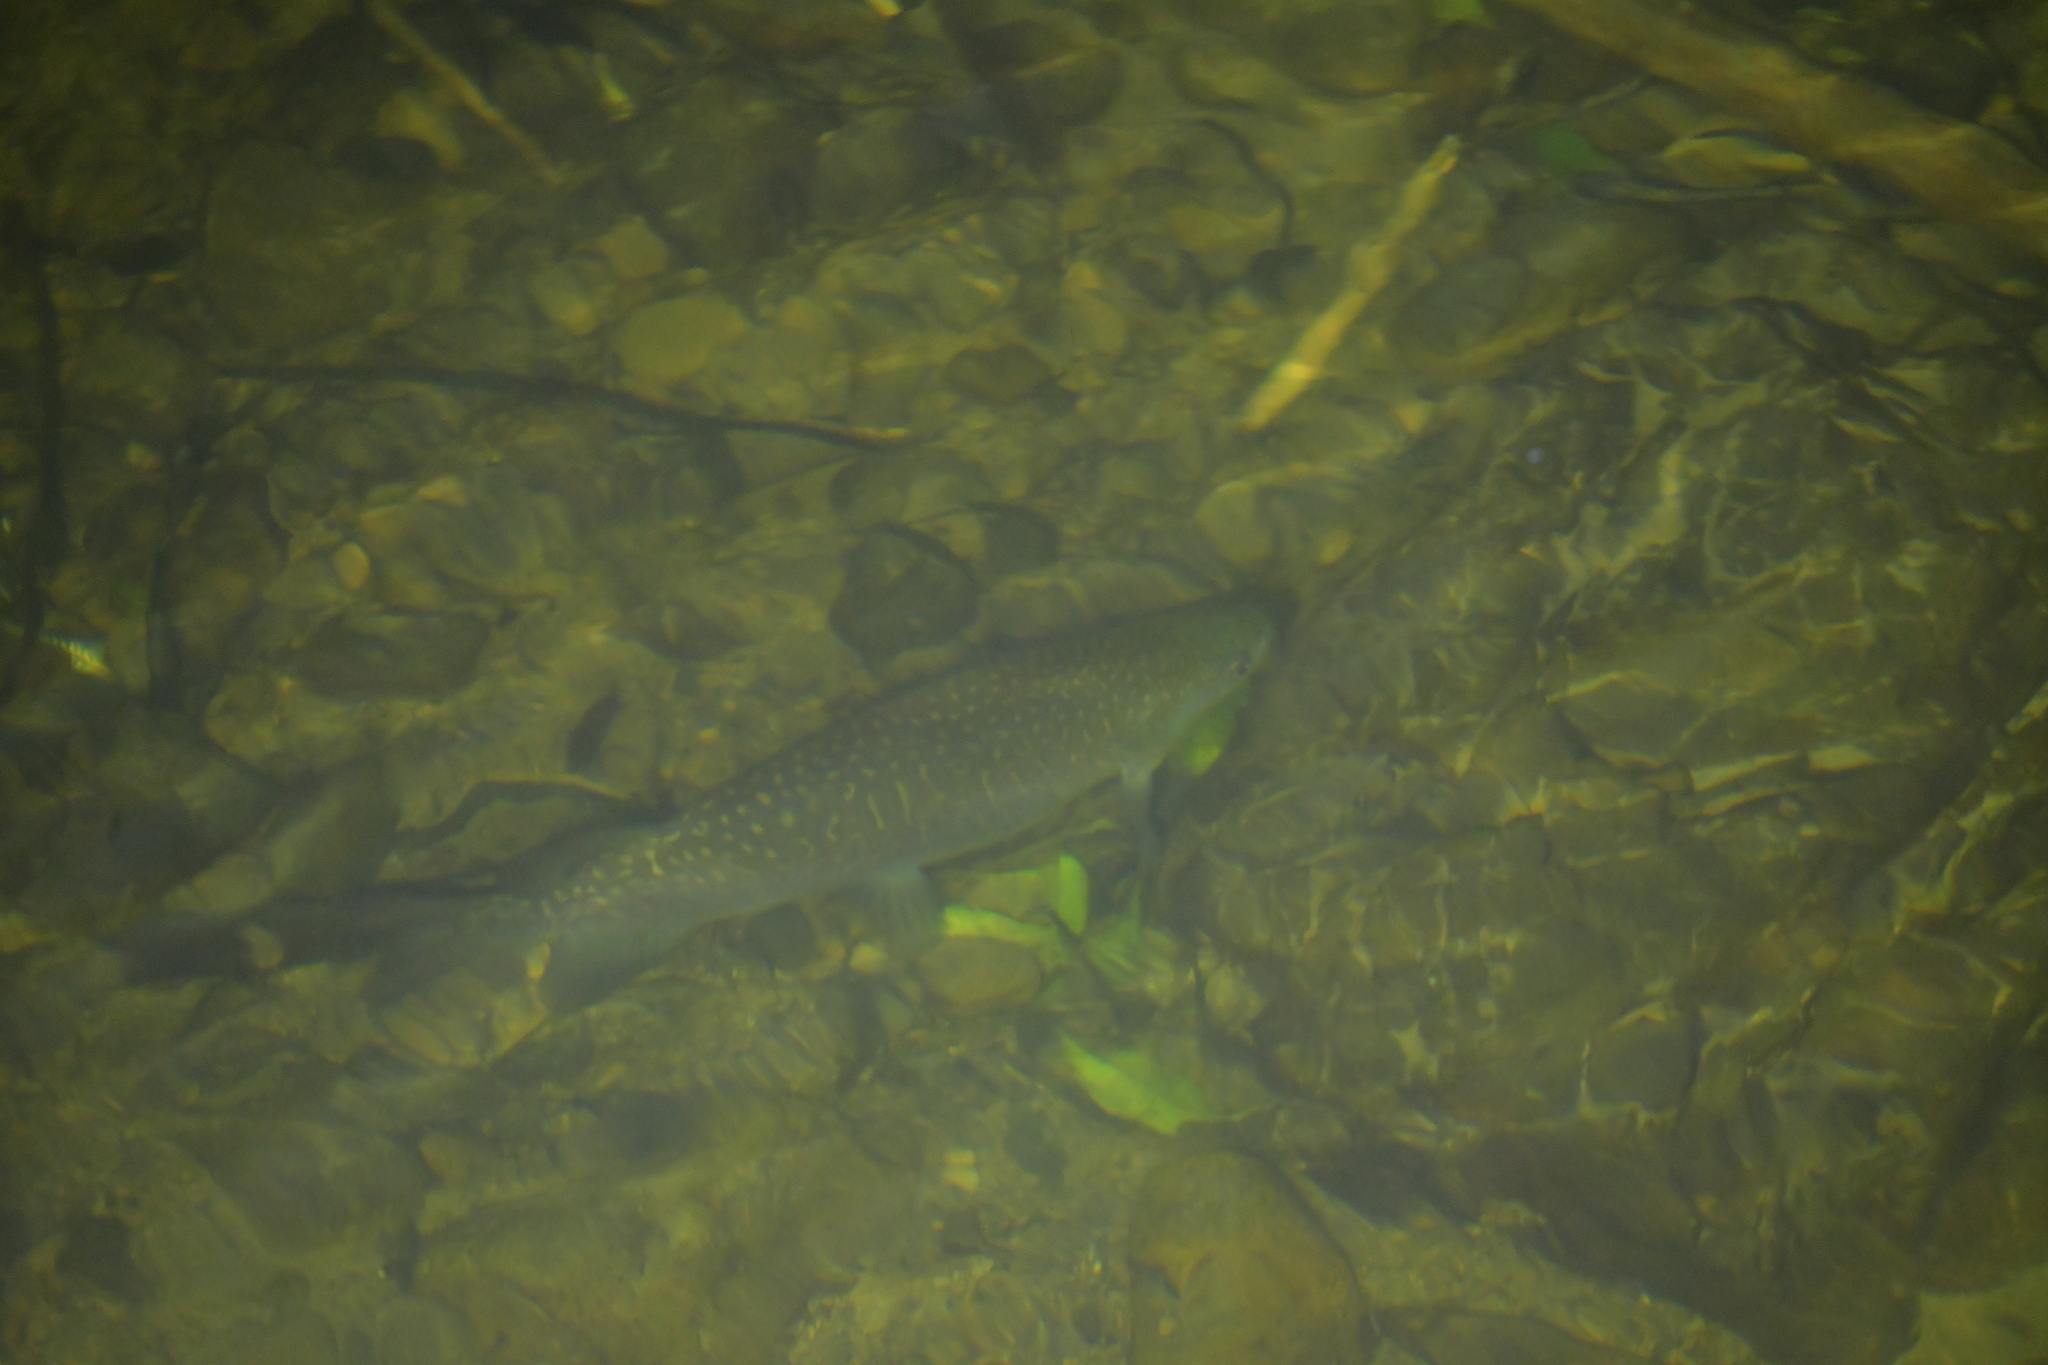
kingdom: Animalia
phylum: Chordata
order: Osmeriformes
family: Galaxiidae
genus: Galaxias
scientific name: Galaxias argenteus
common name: Giant kokopu
